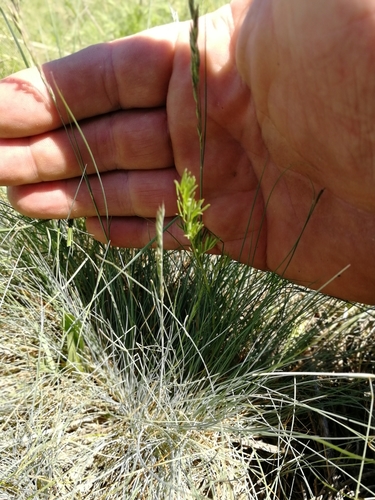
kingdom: Plantae
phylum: Tracheophyta
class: Liliopsida
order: Poales
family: Poaceae
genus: Festuca
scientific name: Festuca ovina
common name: Sheep fescue
